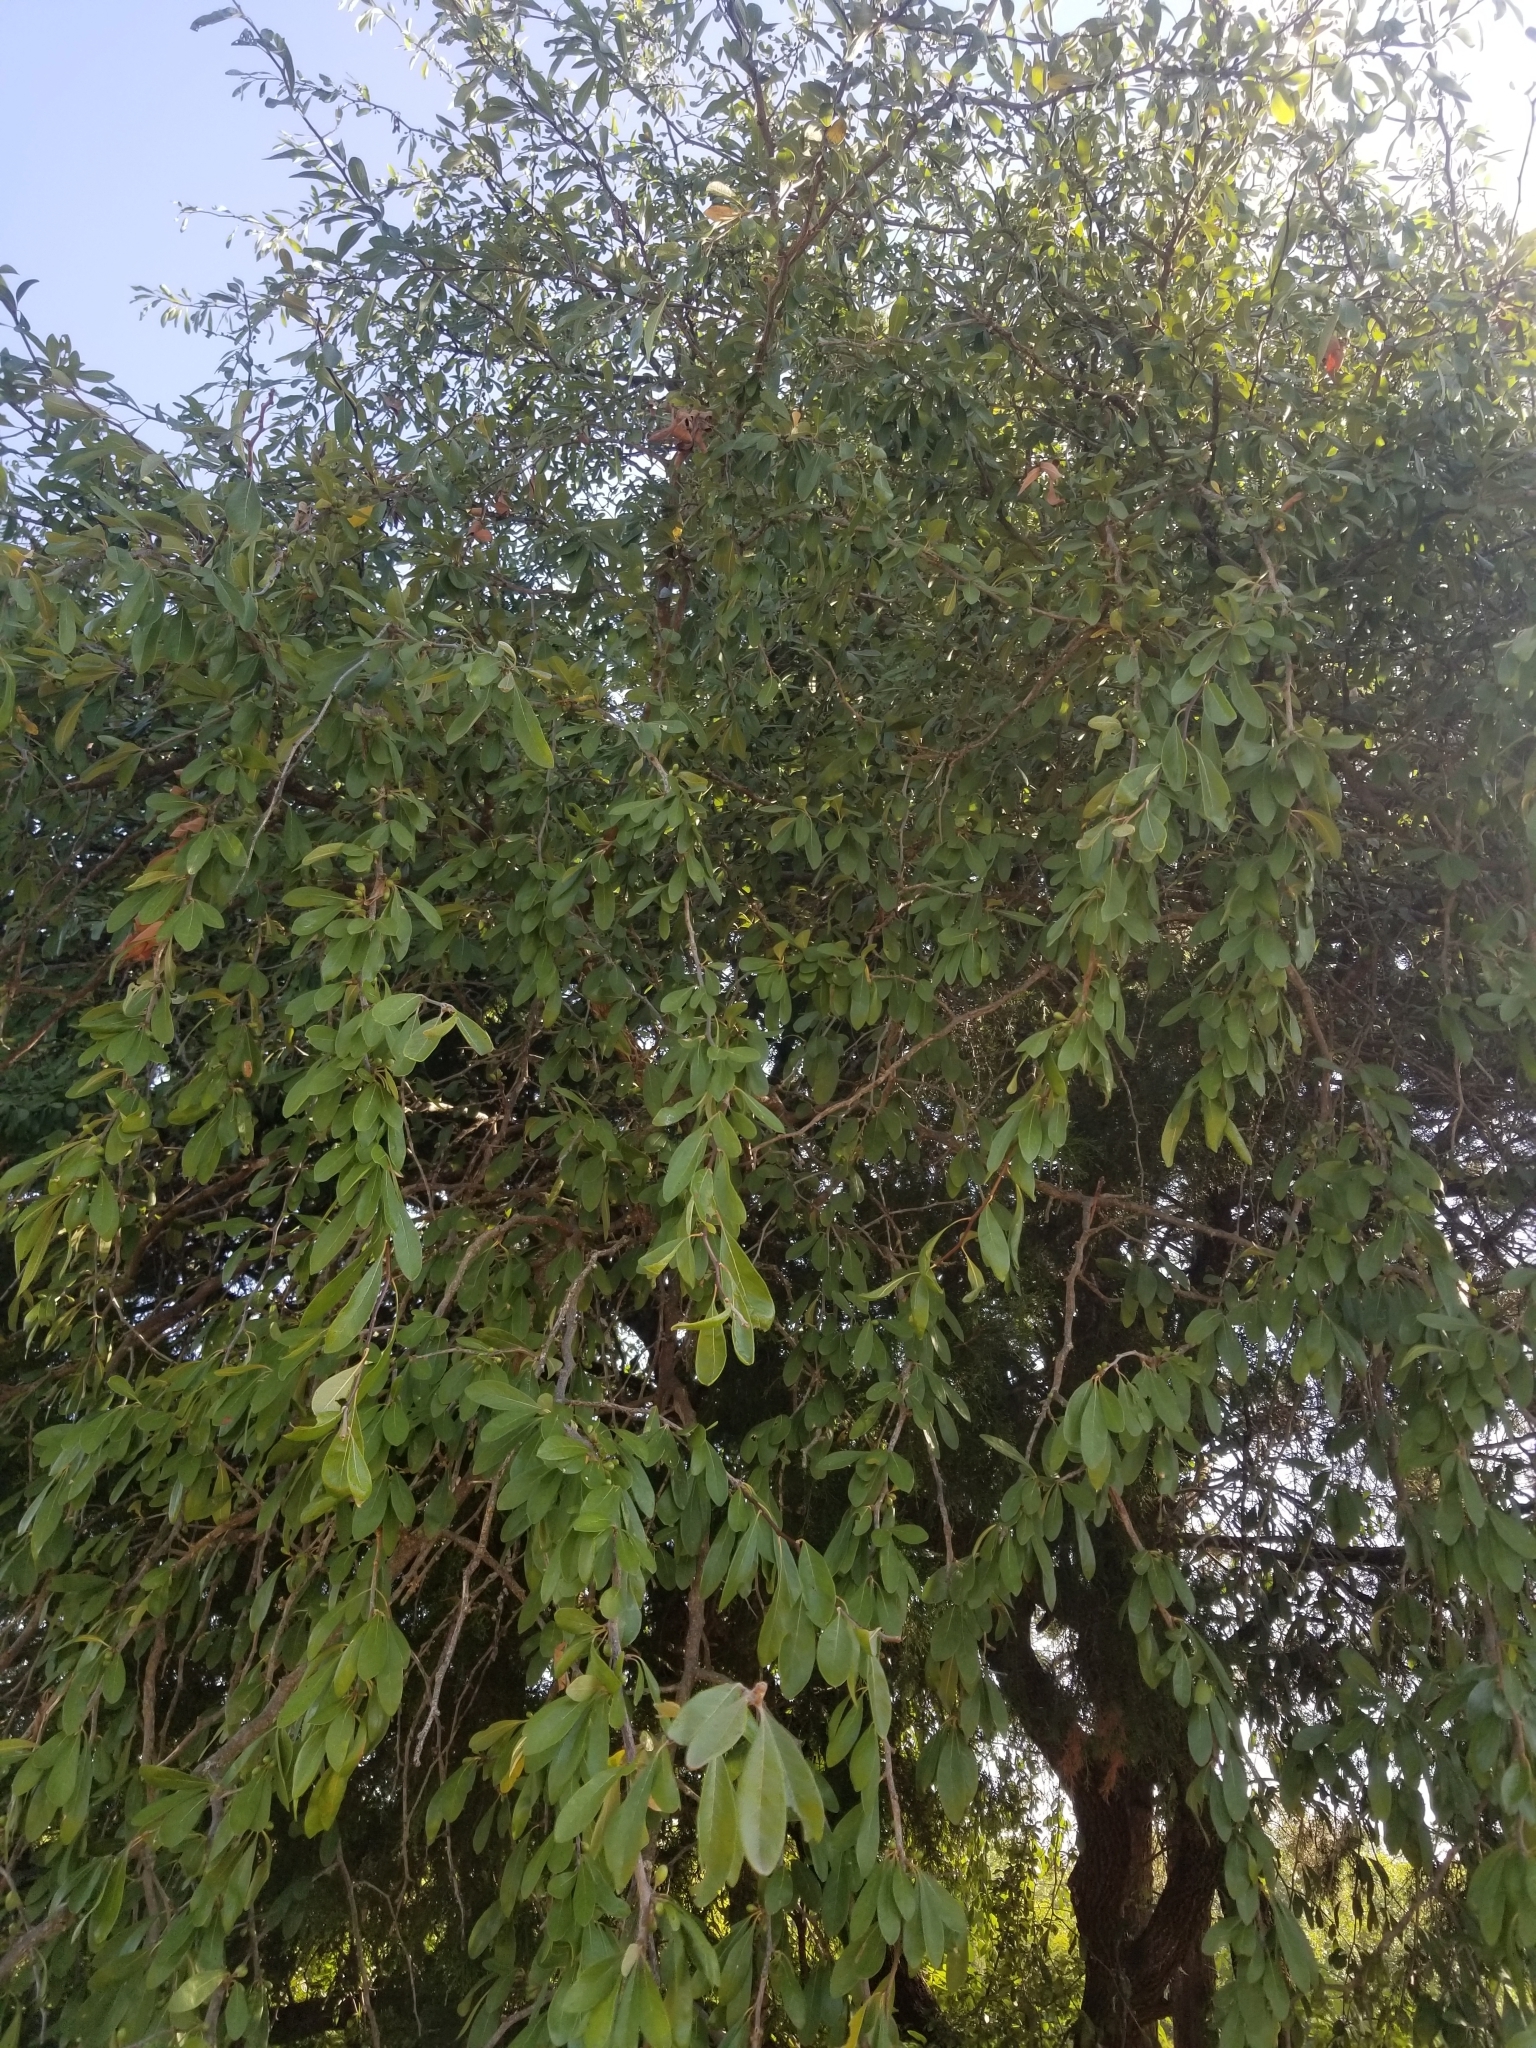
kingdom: Plantae
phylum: Tracheophyta
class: Magnoliopsida
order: Ericales
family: Sapotaceae
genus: Sideroxylon
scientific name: Sideroxylon lanuginosum
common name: Chittamwood
